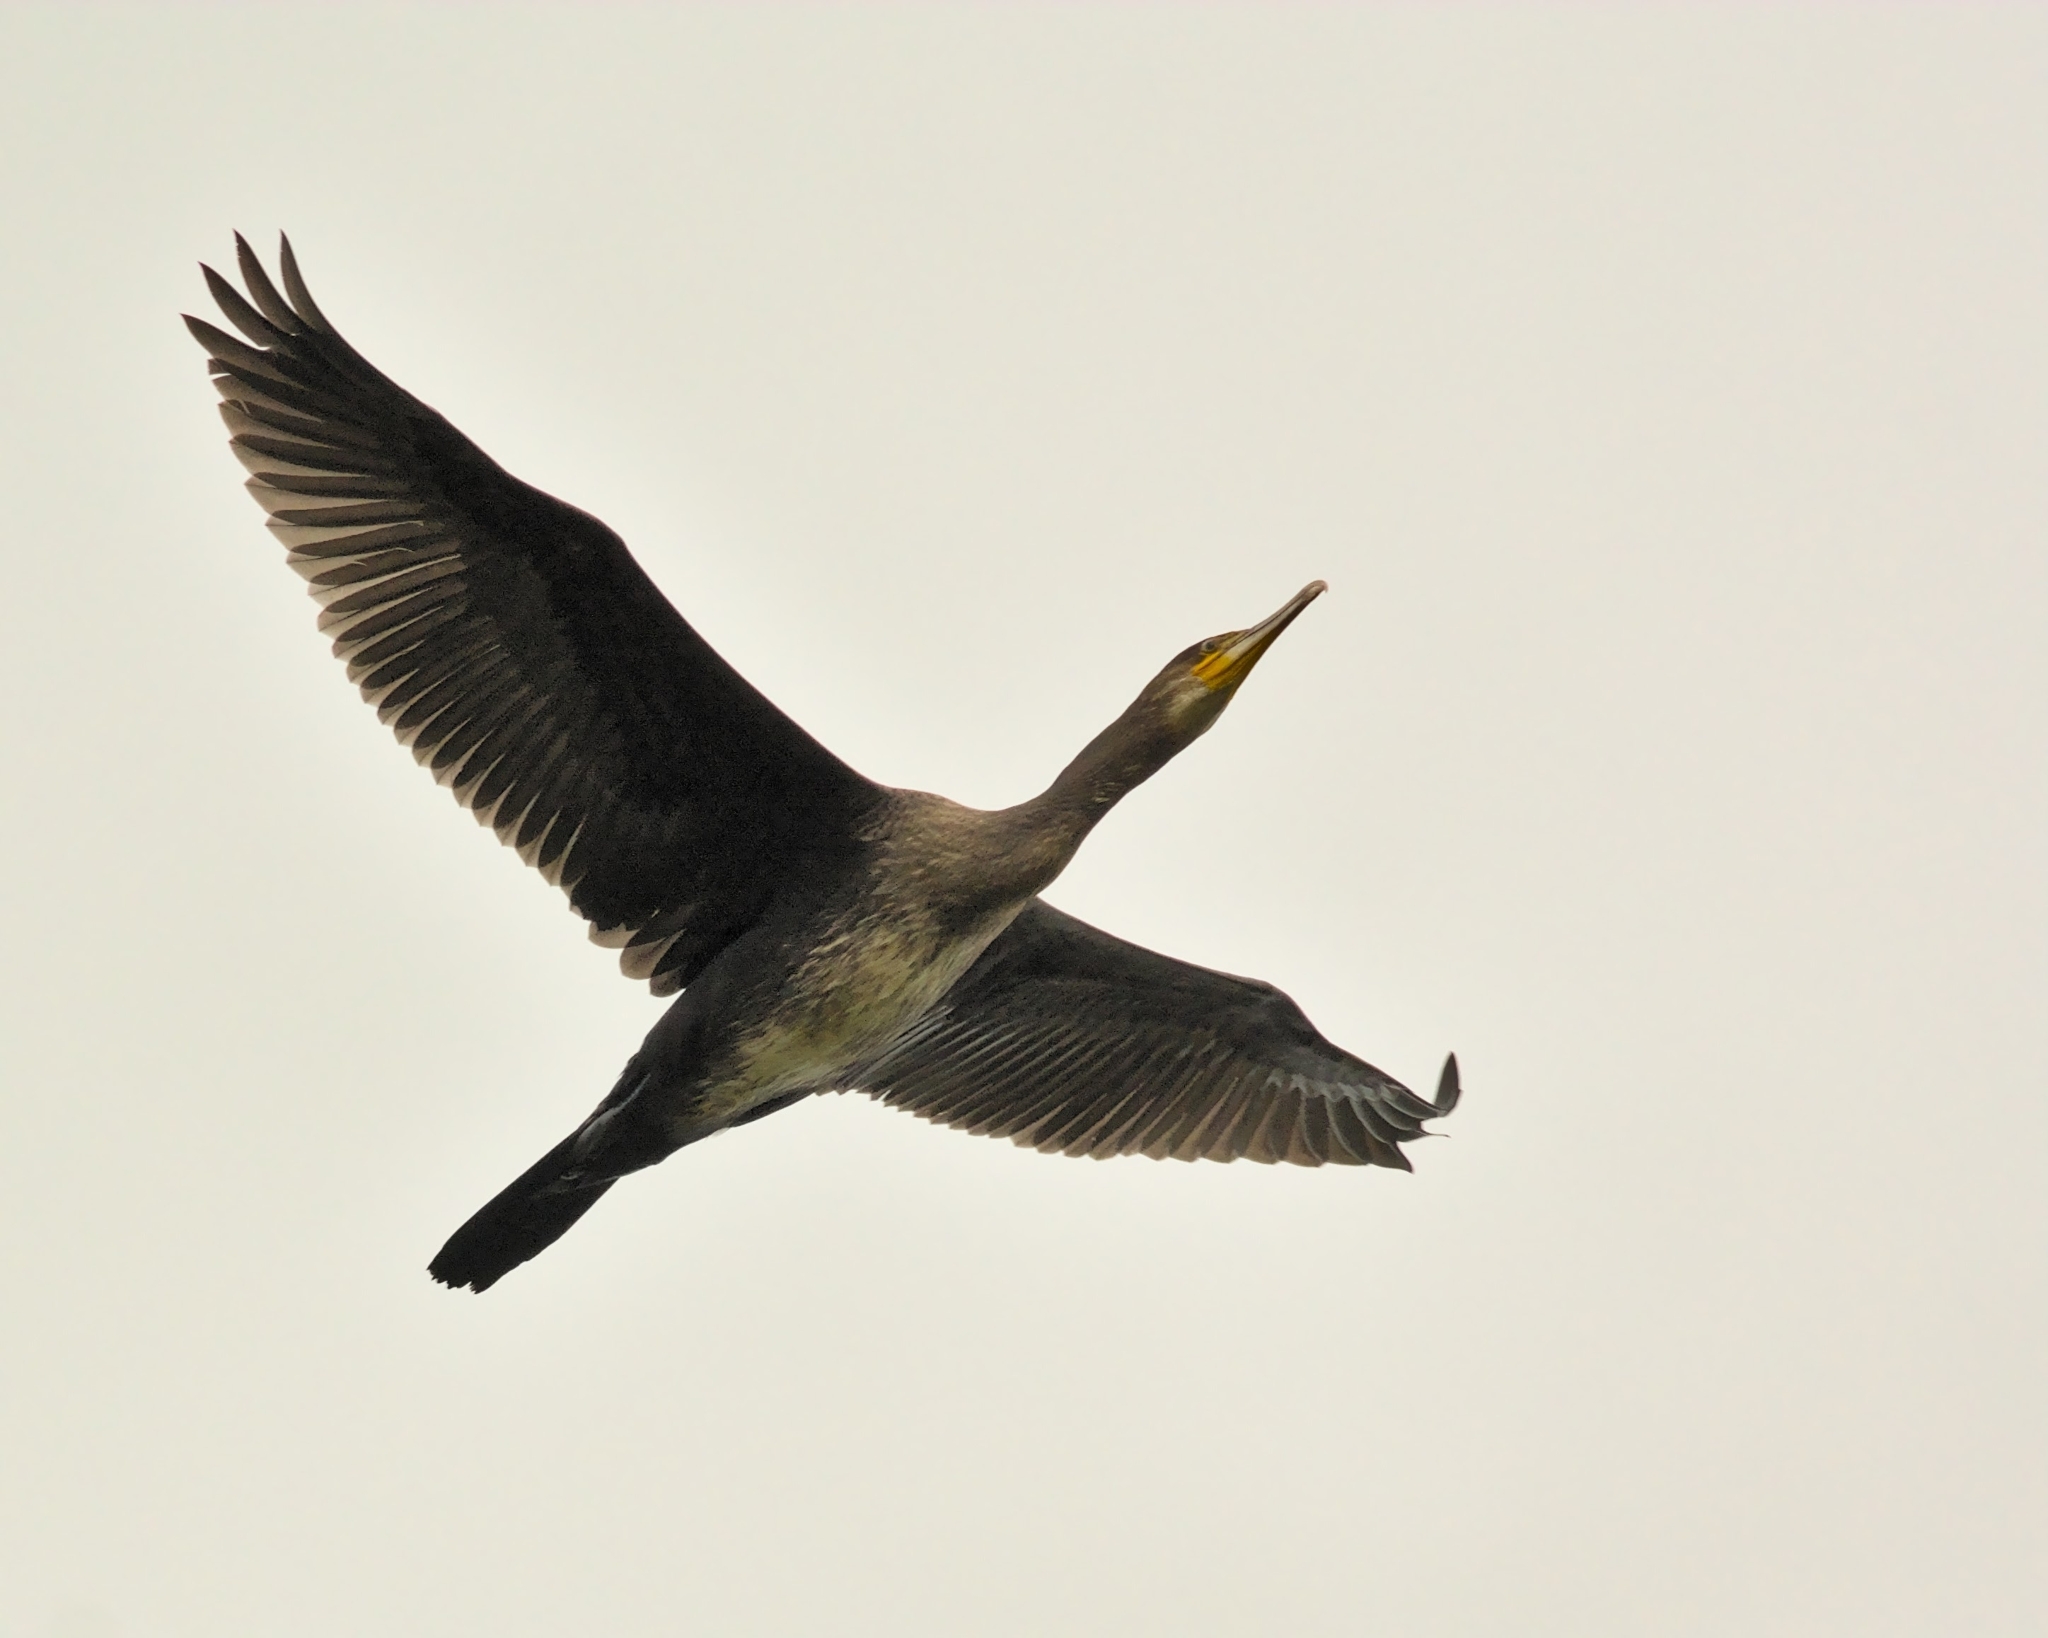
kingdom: Animalia
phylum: Chordata
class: Aves
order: Suliformes
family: Phalacrocoracidae
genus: Phalacrocorax
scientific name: Phalacrocorax carbo
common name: Great cormorant
